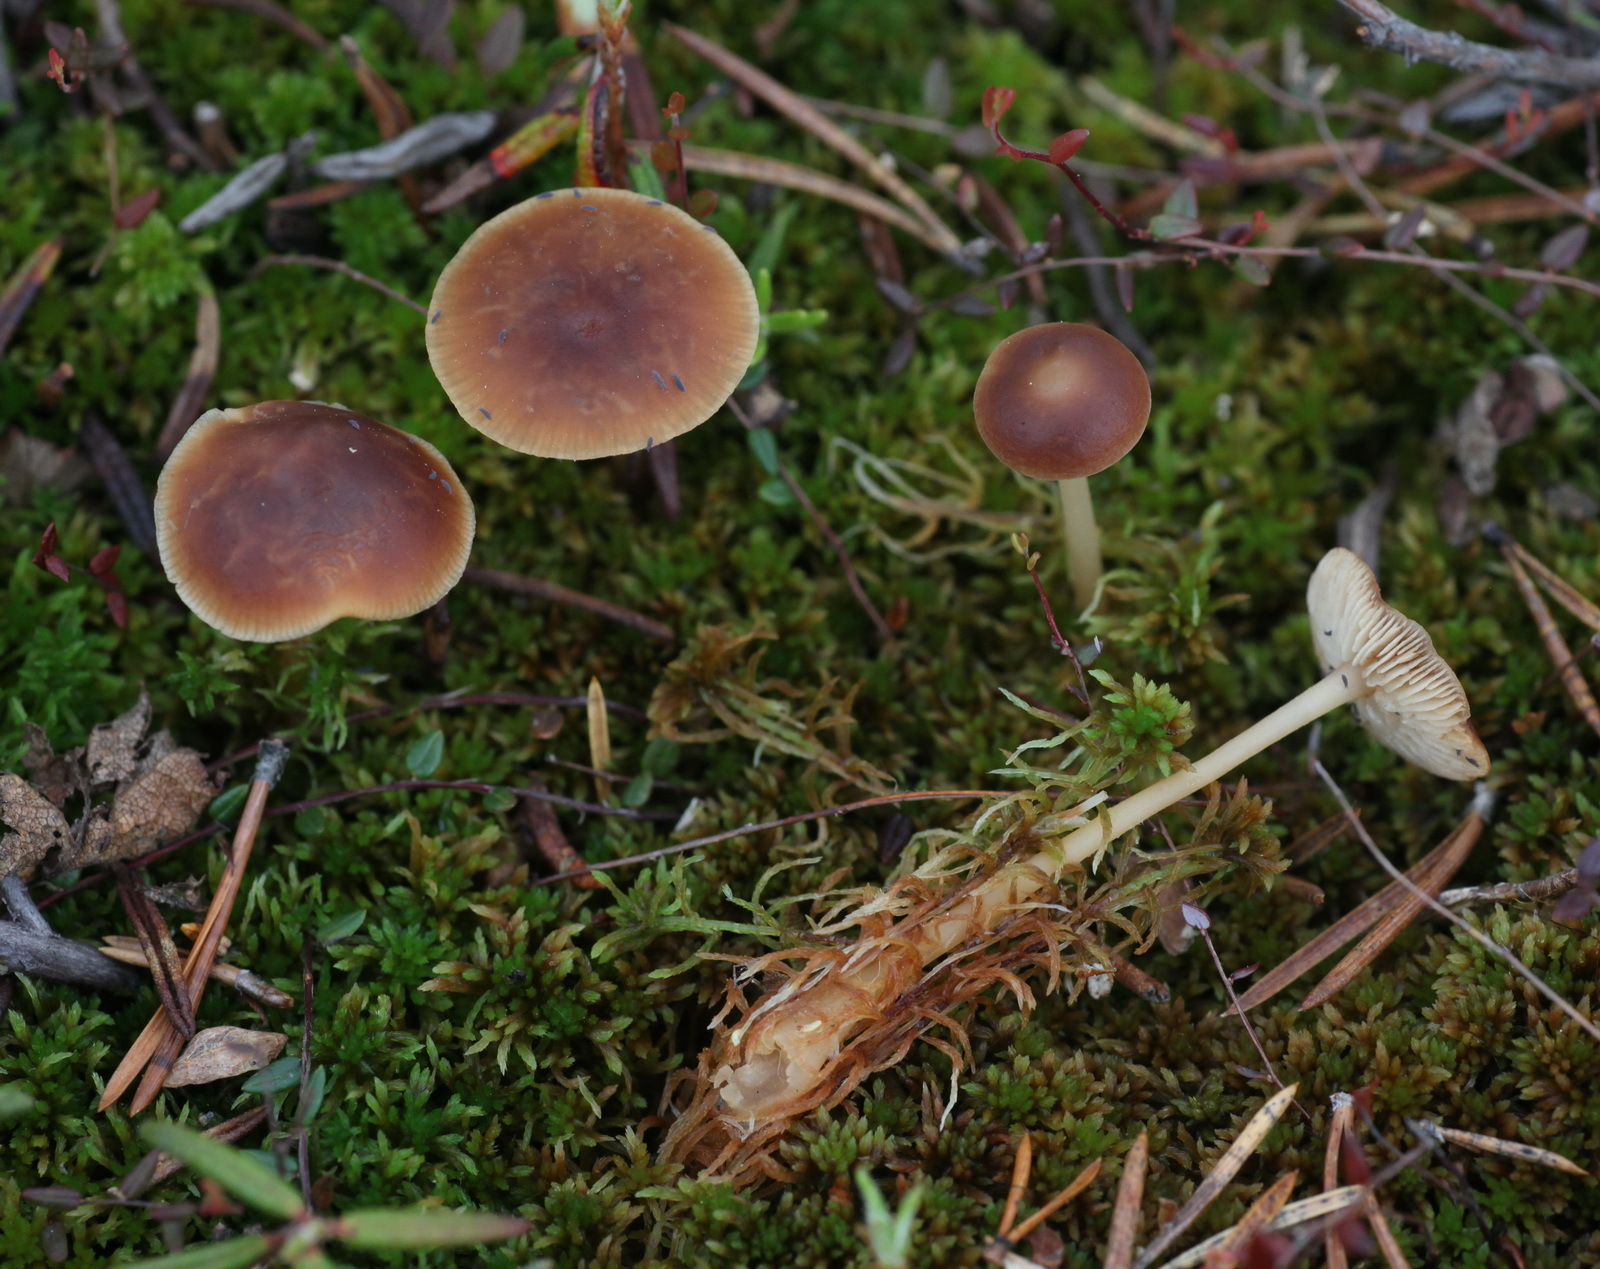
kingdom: Fungi
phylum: Basidiomycota
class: Agaricomycetes
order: Agaricales
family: Omphalotaceae
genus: Gymnopus
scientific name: Gymnopus ocior
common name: Spring toughshank
